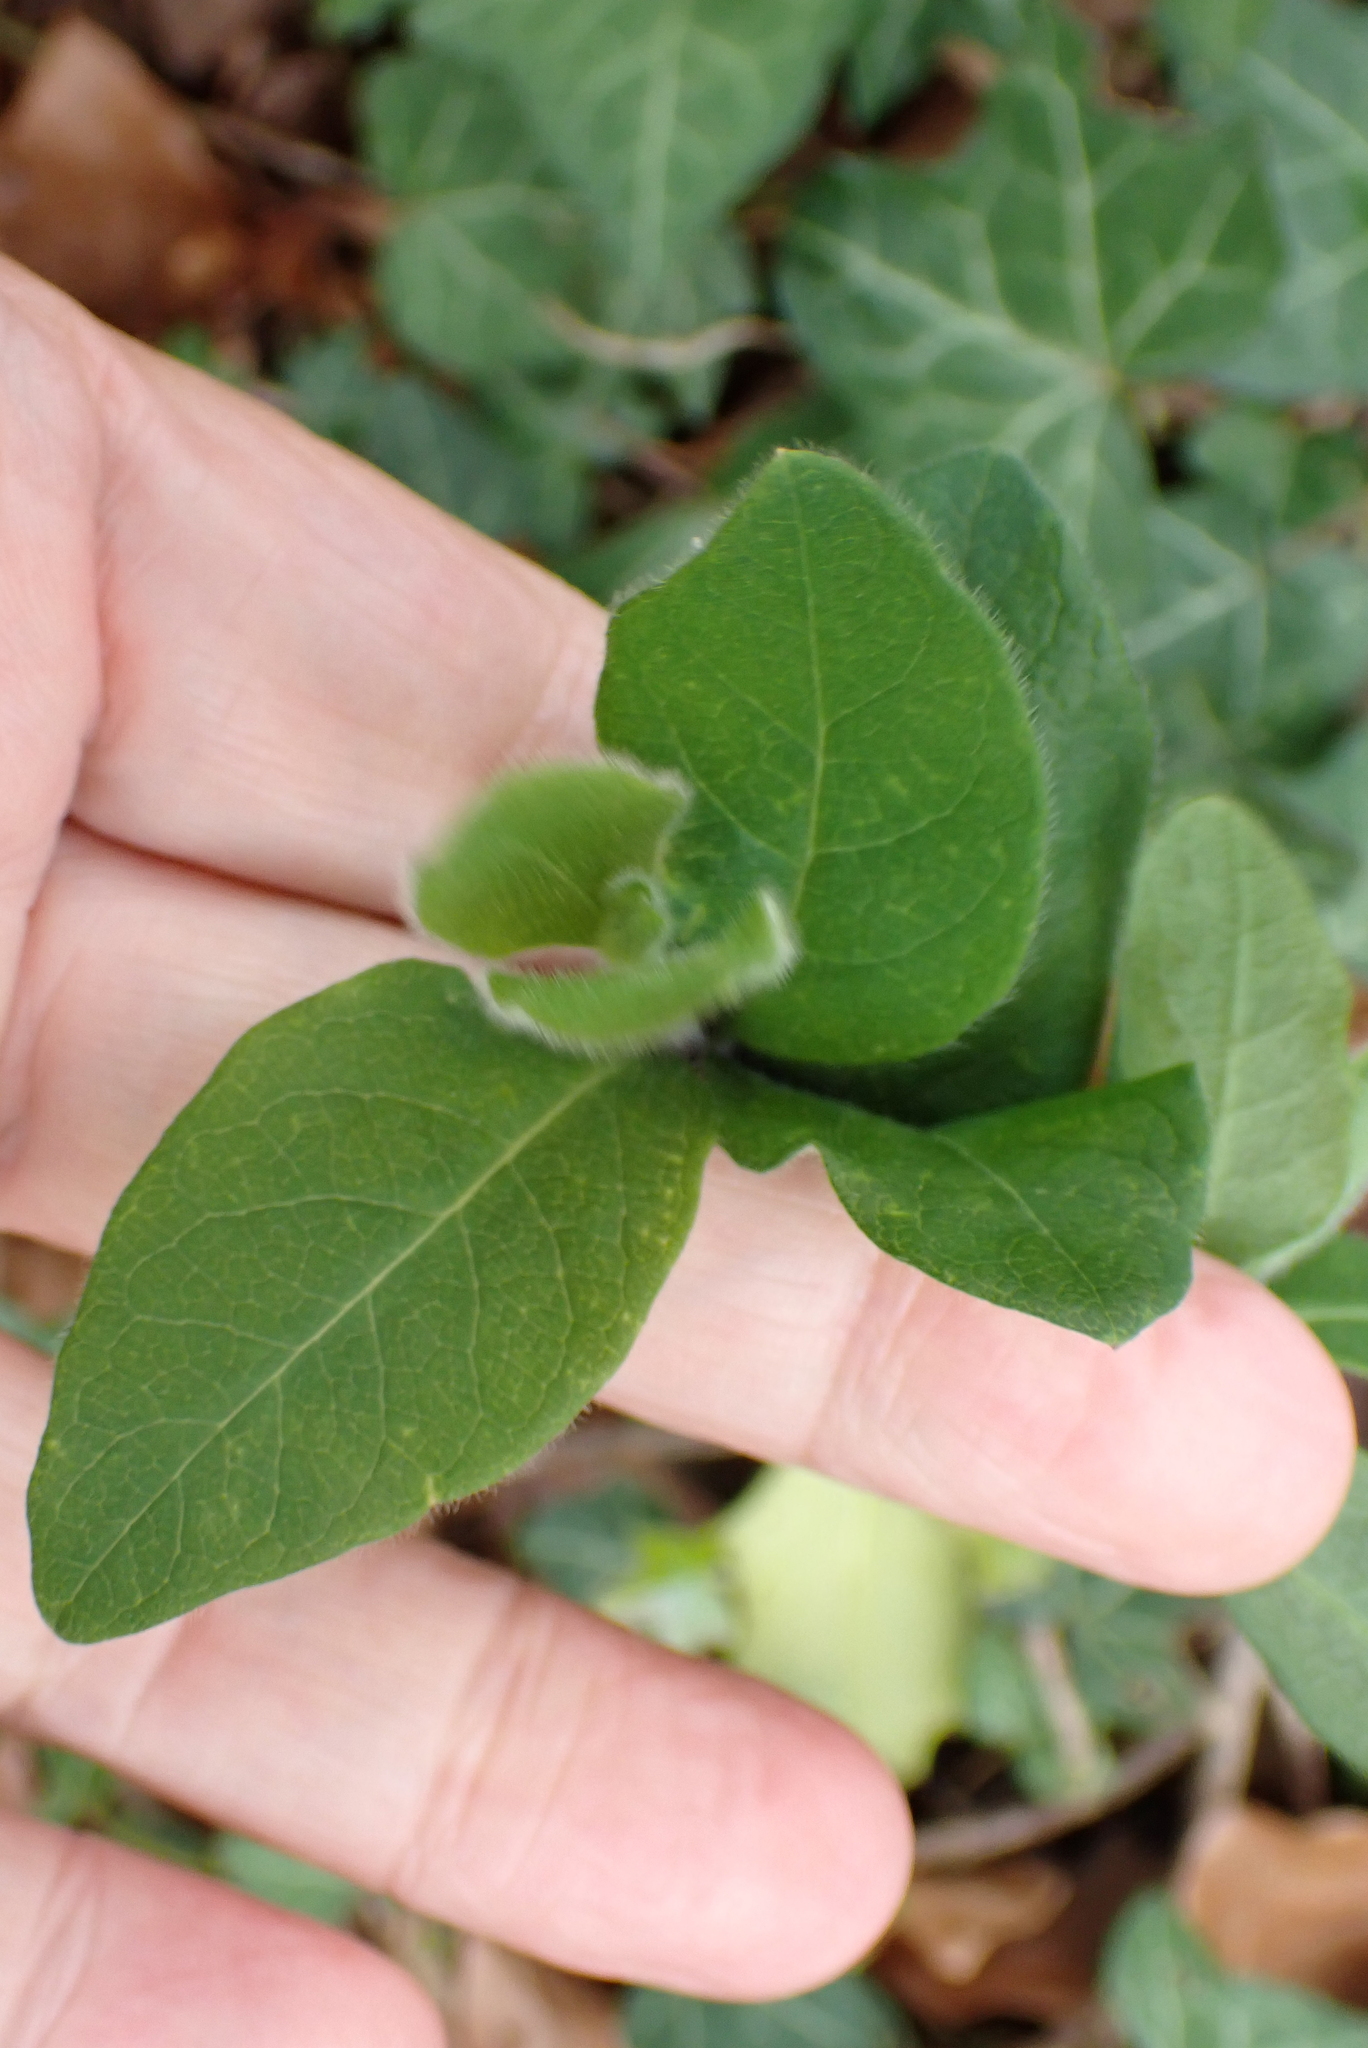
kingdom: Plantae
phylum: Tracheophyta
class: Magnoliopsida
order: Dipsacales
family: Caprifoliaceae
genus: Lonicera
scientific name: Lonicera periclymenum
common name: European honeysuckle
